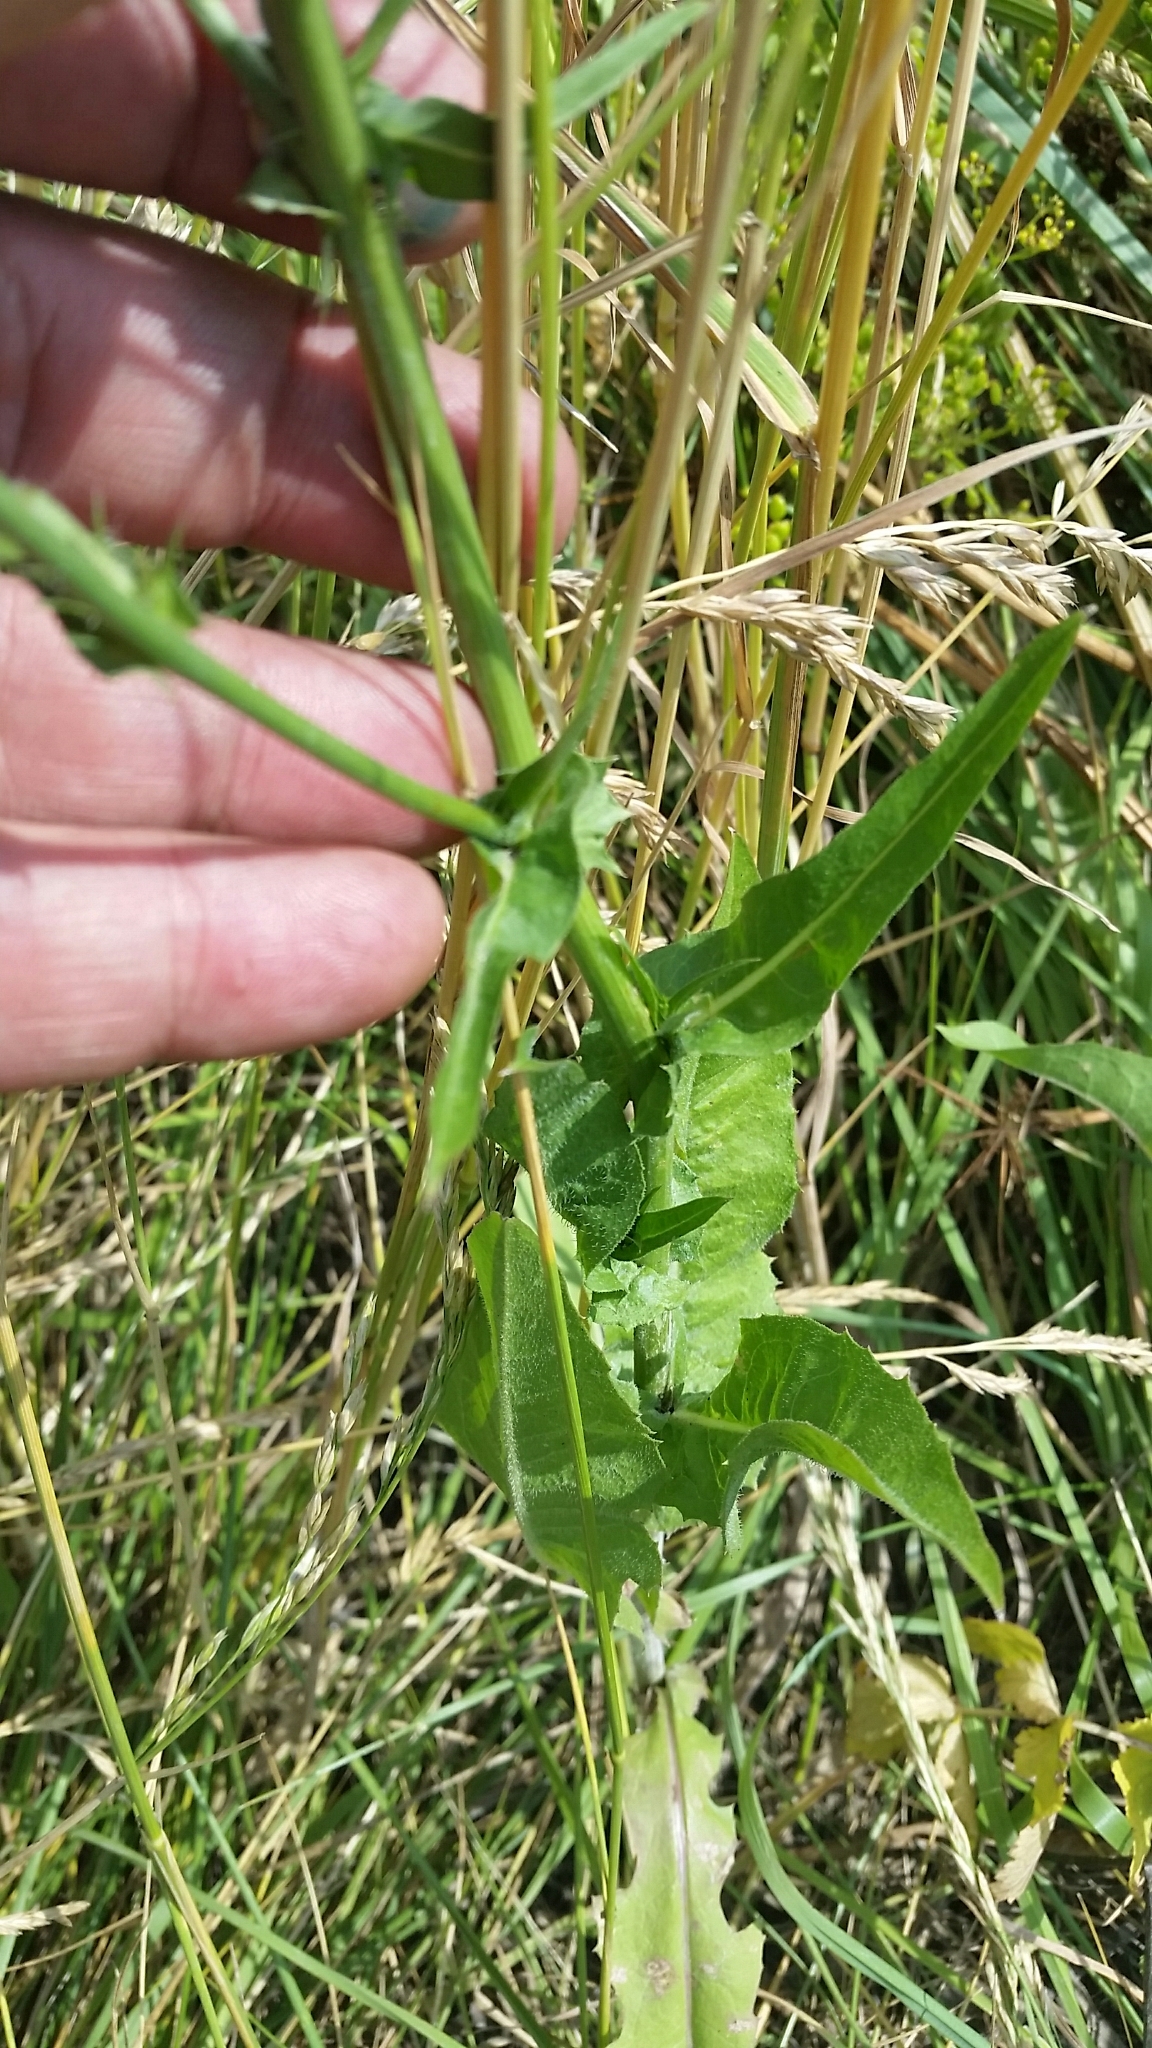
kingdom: Plantae
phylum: Tracheophyta
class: Magnoliopsida
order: Asterales
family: Asteraceae
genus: Cichorium
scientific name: Cichorium intybus
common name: Chicory
